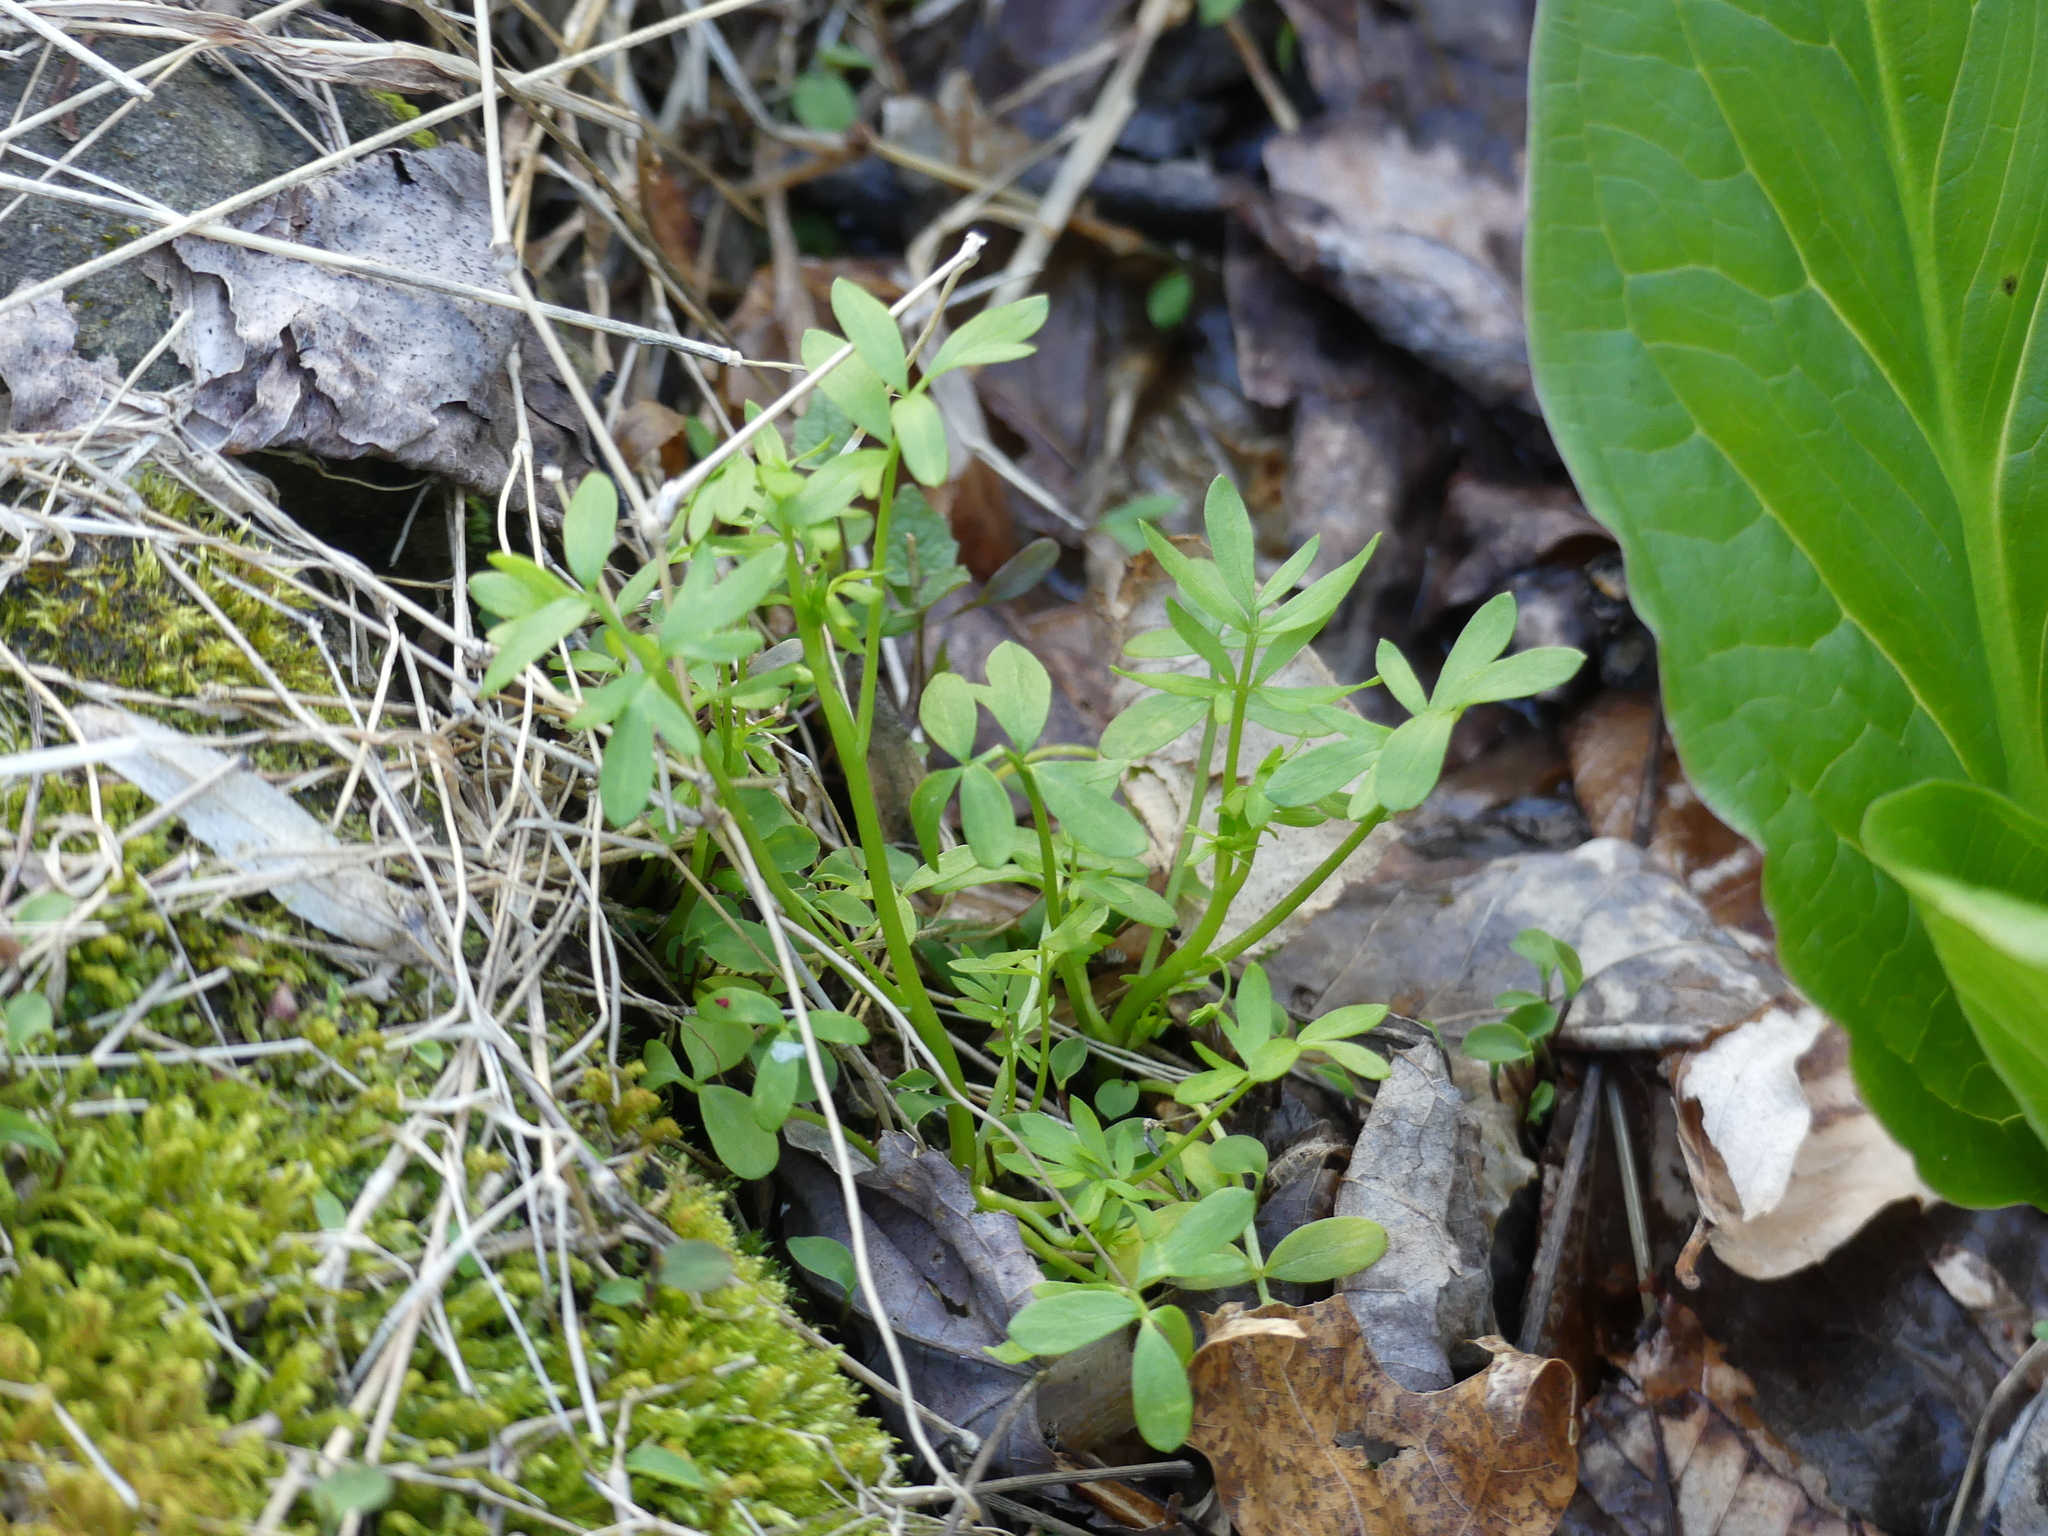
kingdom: Plantae
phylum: Tracheophyta
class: Magnoliopsida
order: Brassicales
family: Limnanthaceae
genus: Floerkea
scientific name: Floerkea proserpinacoides
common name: False mermaid
